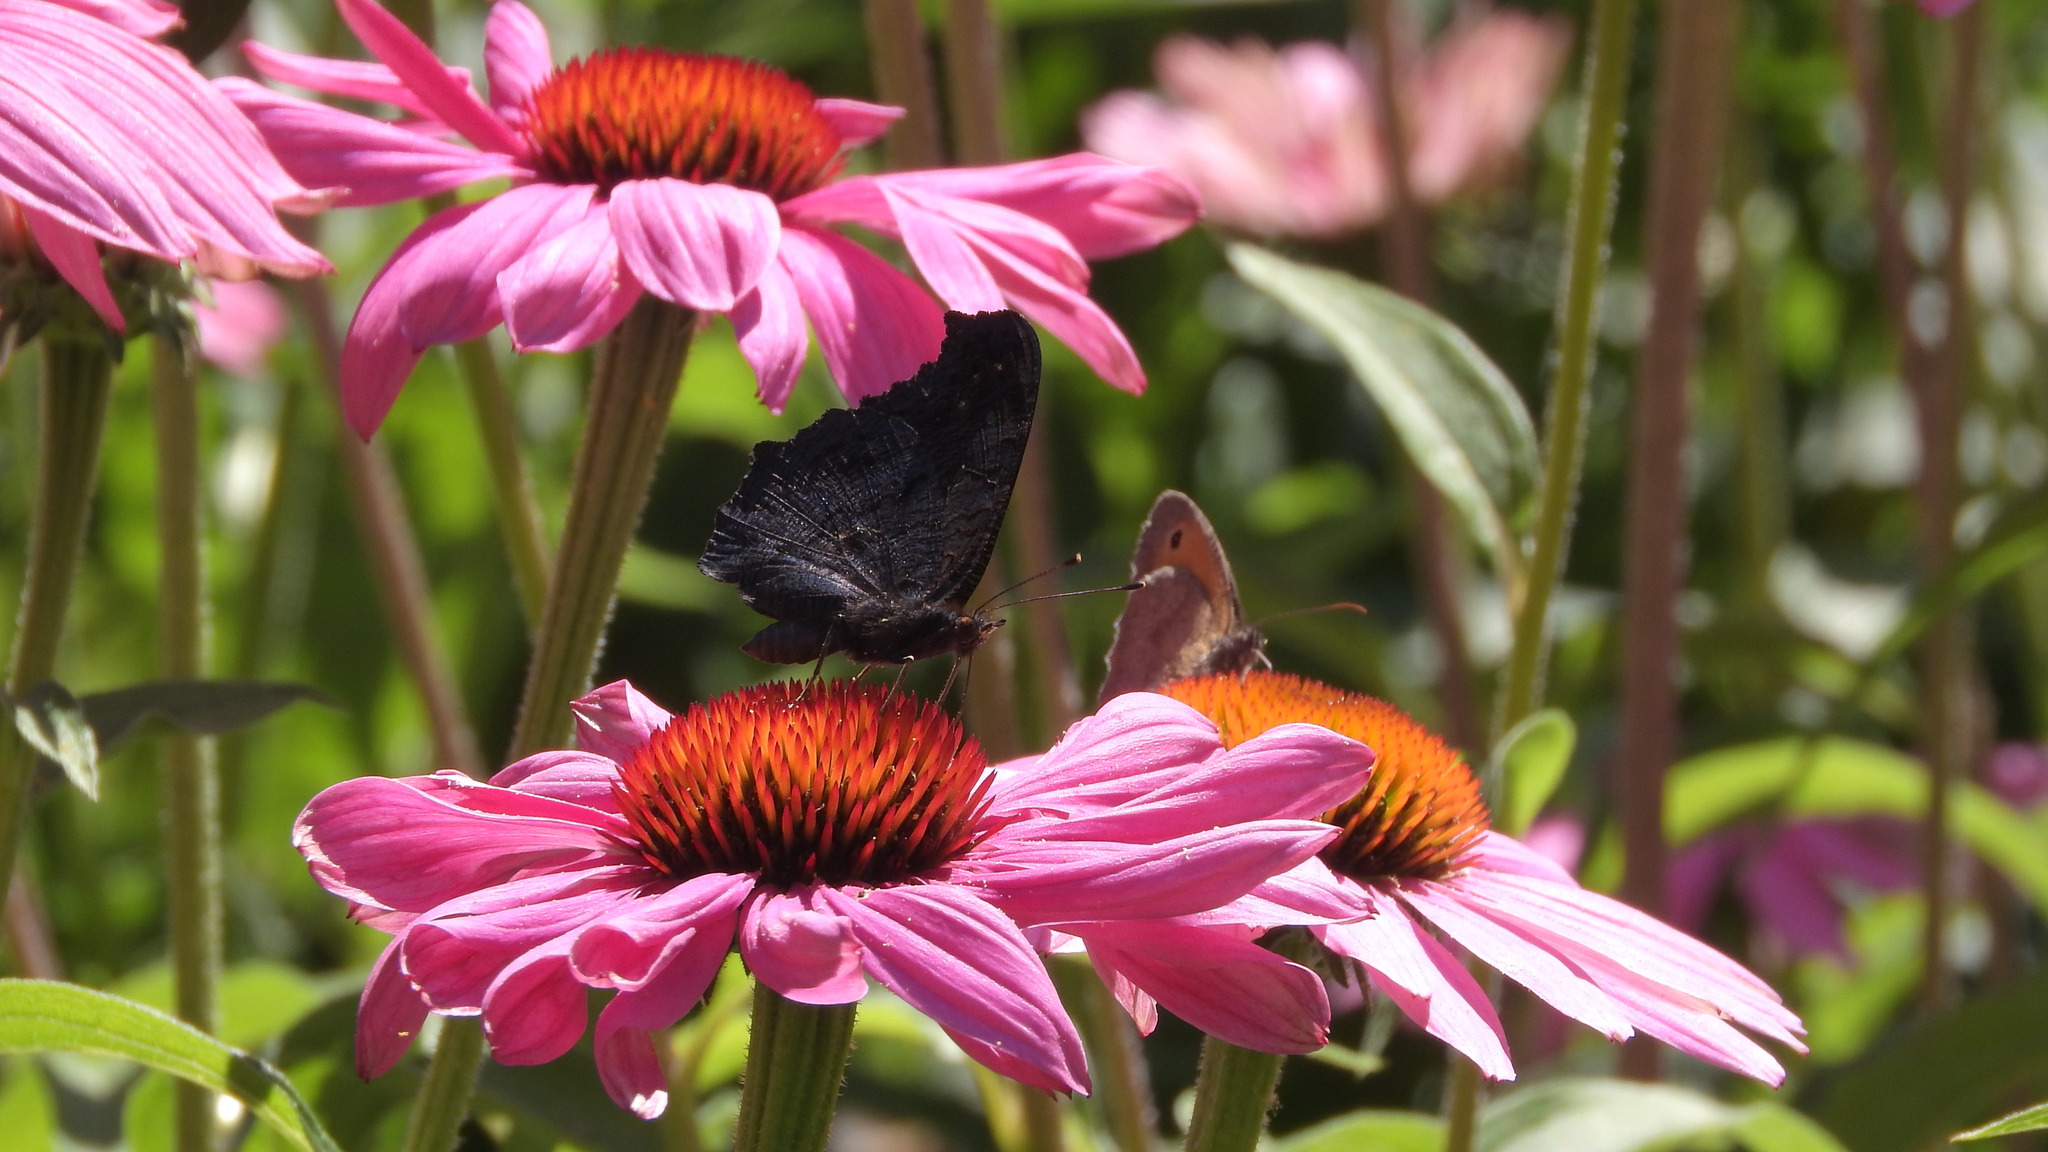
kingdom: Animalia
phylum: Arthropoda
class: Insecta
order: Lepidoptera
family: Nymphalidae
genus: Aglais
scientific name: Aglais io
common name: Peacock
